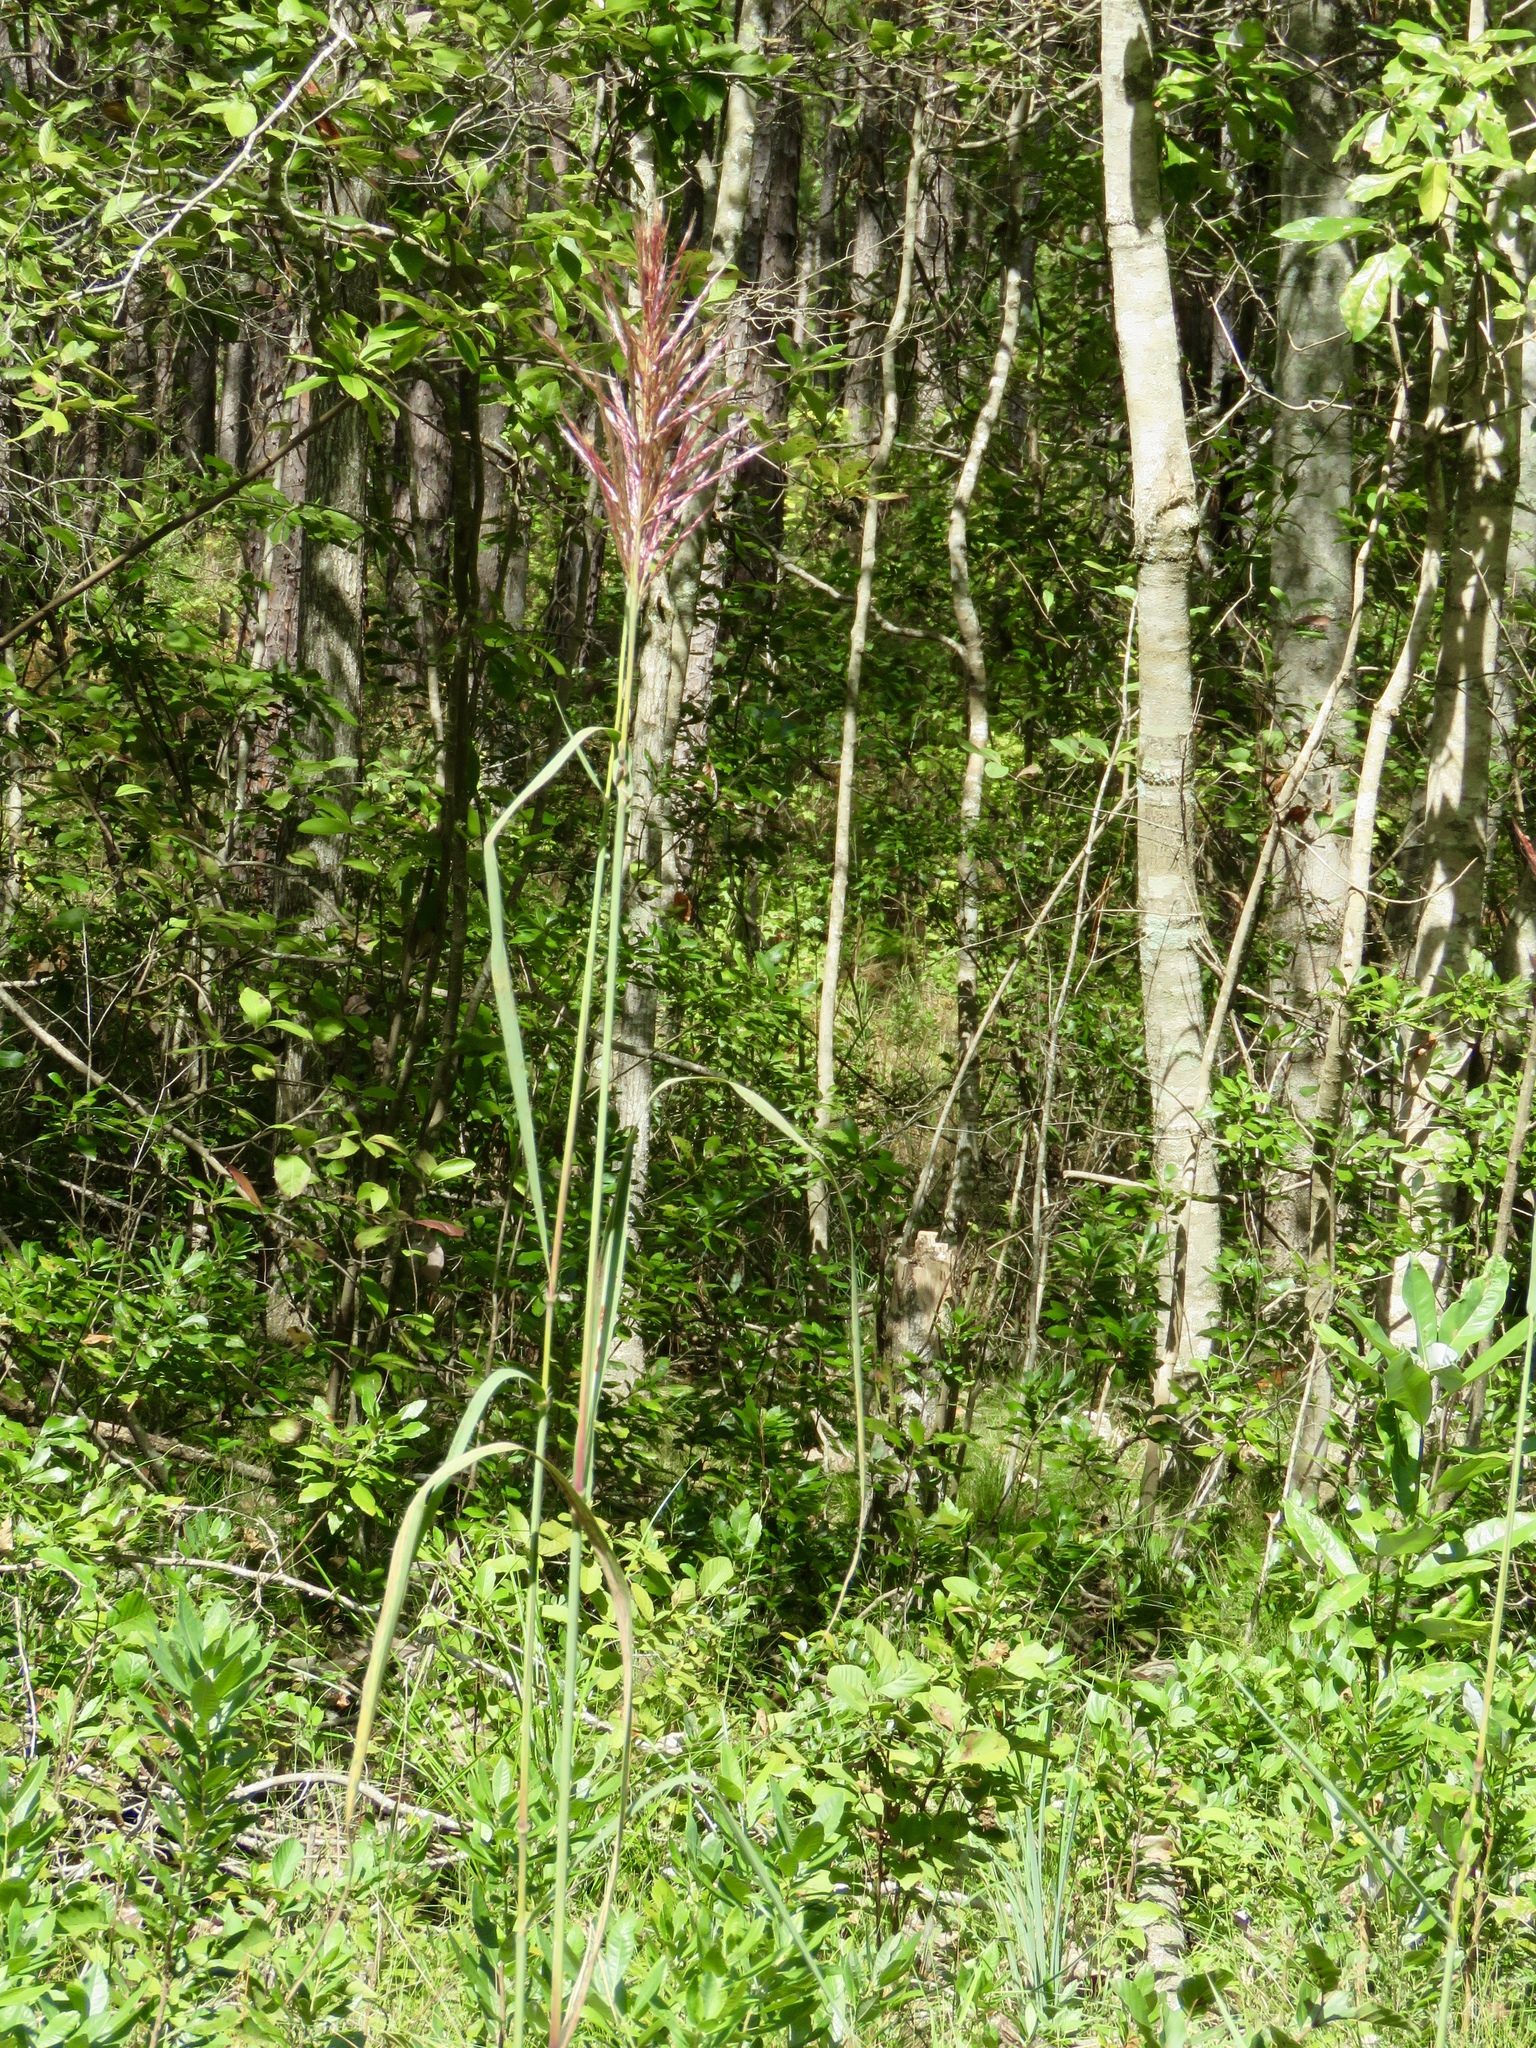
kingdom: Plantae
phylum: Tracheophyta
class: Liliopsida
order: Poales
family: Poaceae
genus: Erianthus
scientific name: Erianthus giganteus
